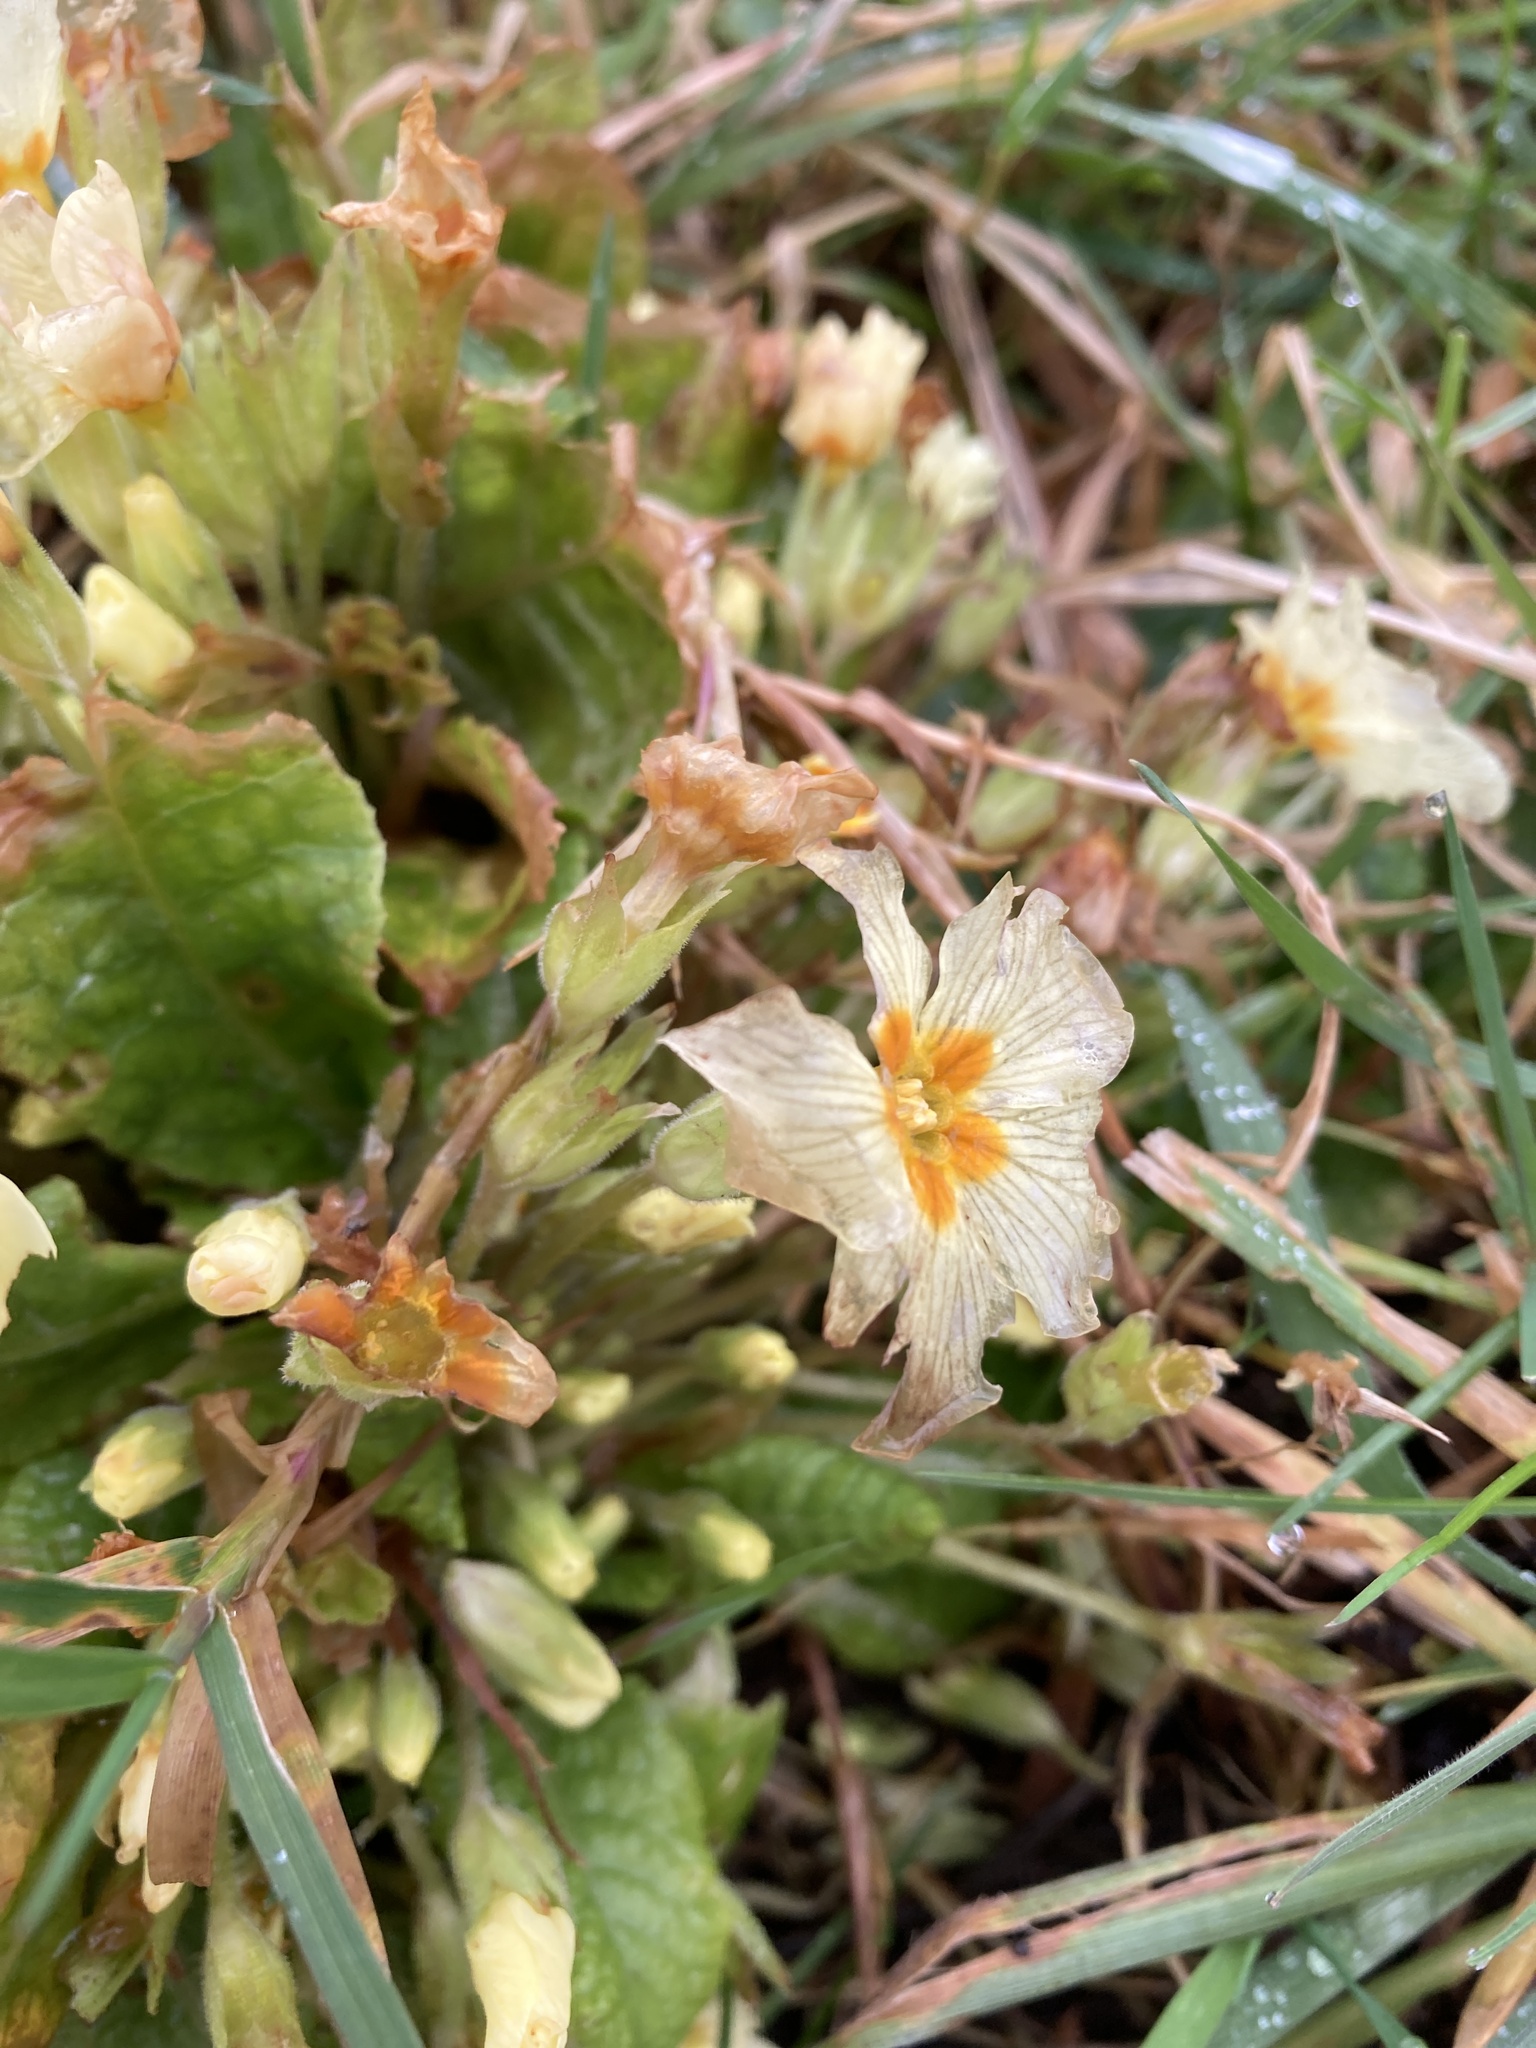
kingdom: Plantae
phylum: Tracheophyta
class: Magnoliopsida
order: Ericales
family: Primulaceae
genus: Primula
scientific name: Primula vulgaris
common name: Primrose
